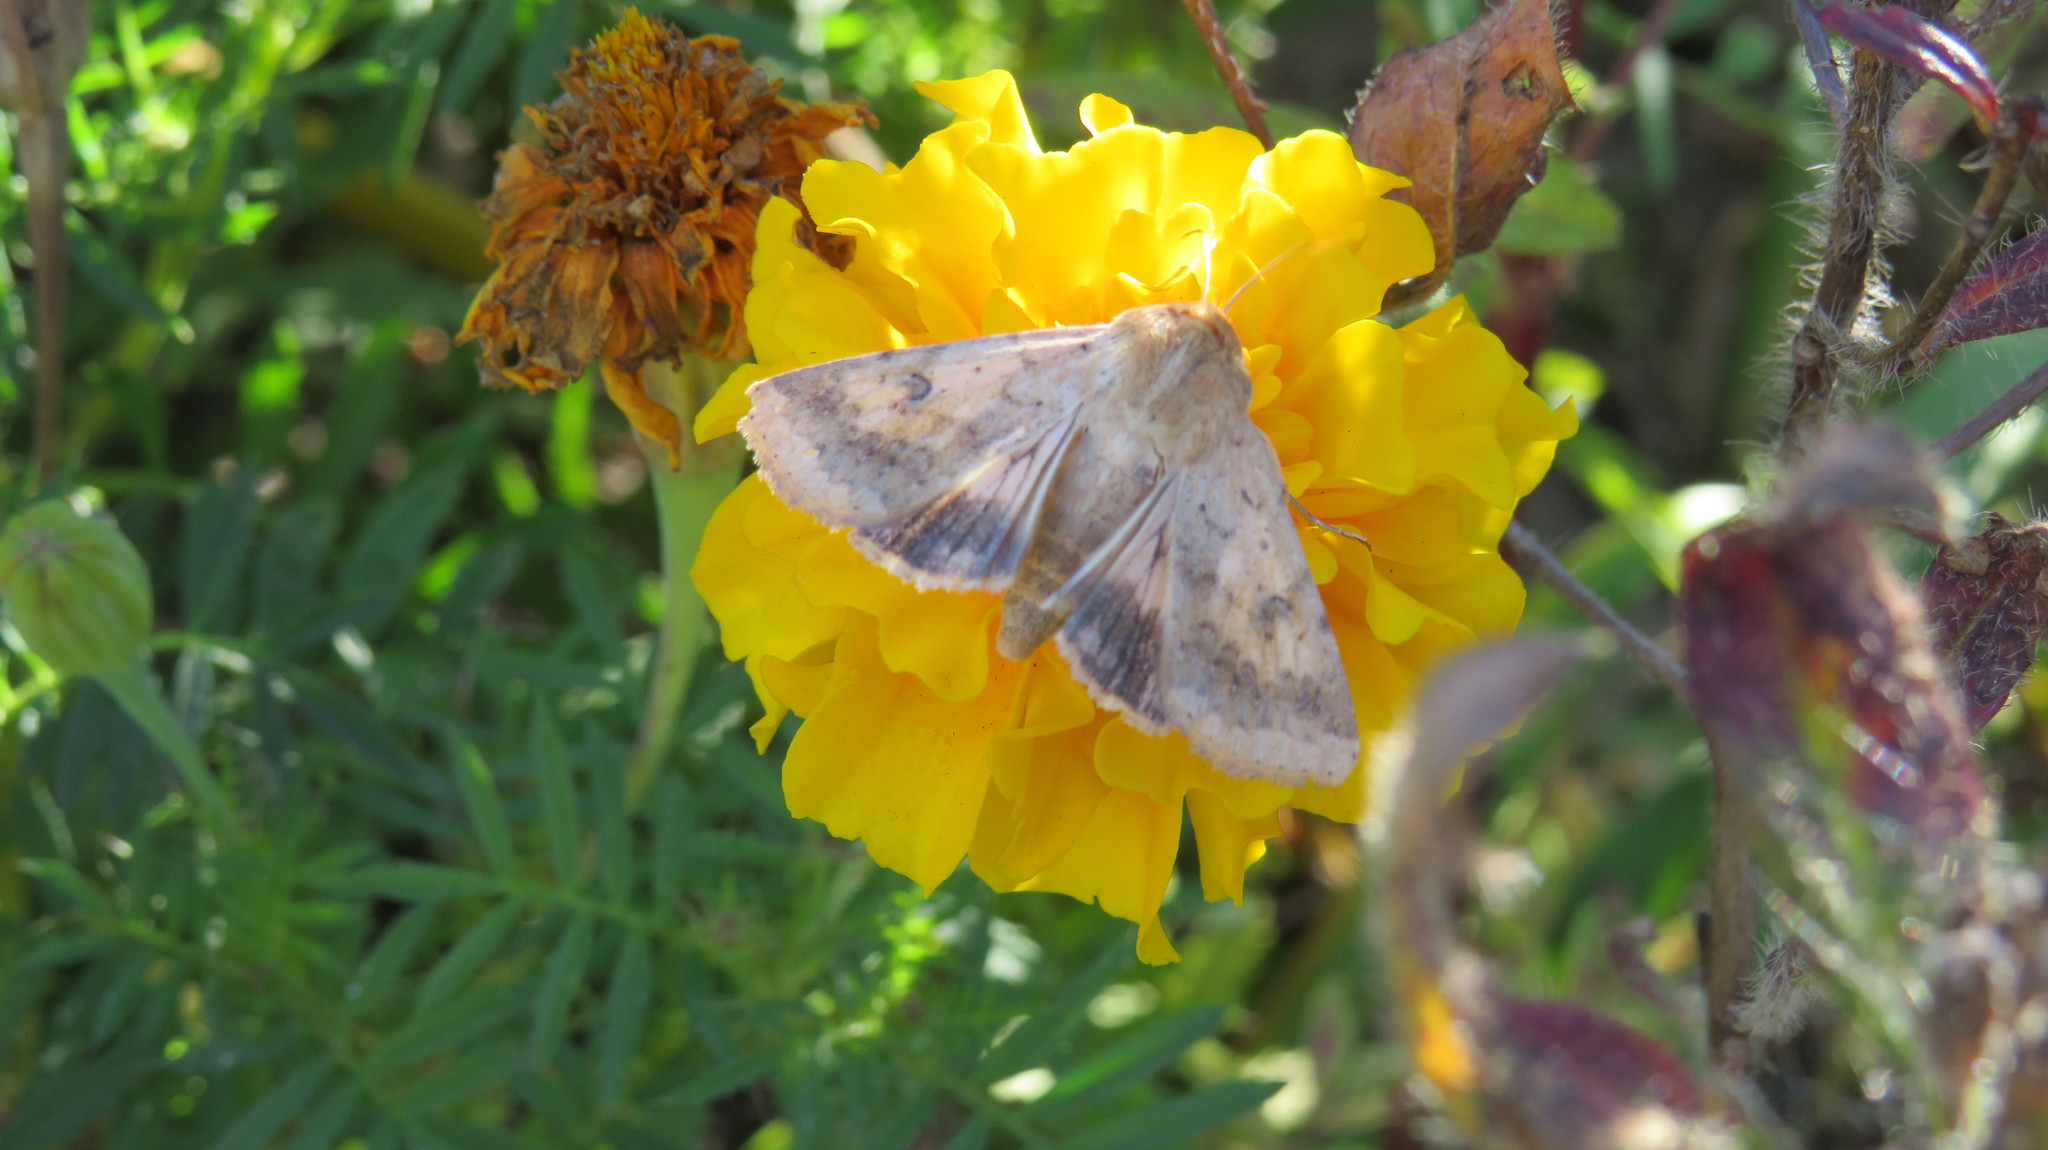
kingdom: Animalia
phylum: Arthropoda
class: Insecta
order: Lepidoptera
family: Noctuidae
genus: Helicoverpa
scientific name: Helicoverpa armigera
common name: Cotton bollworm
